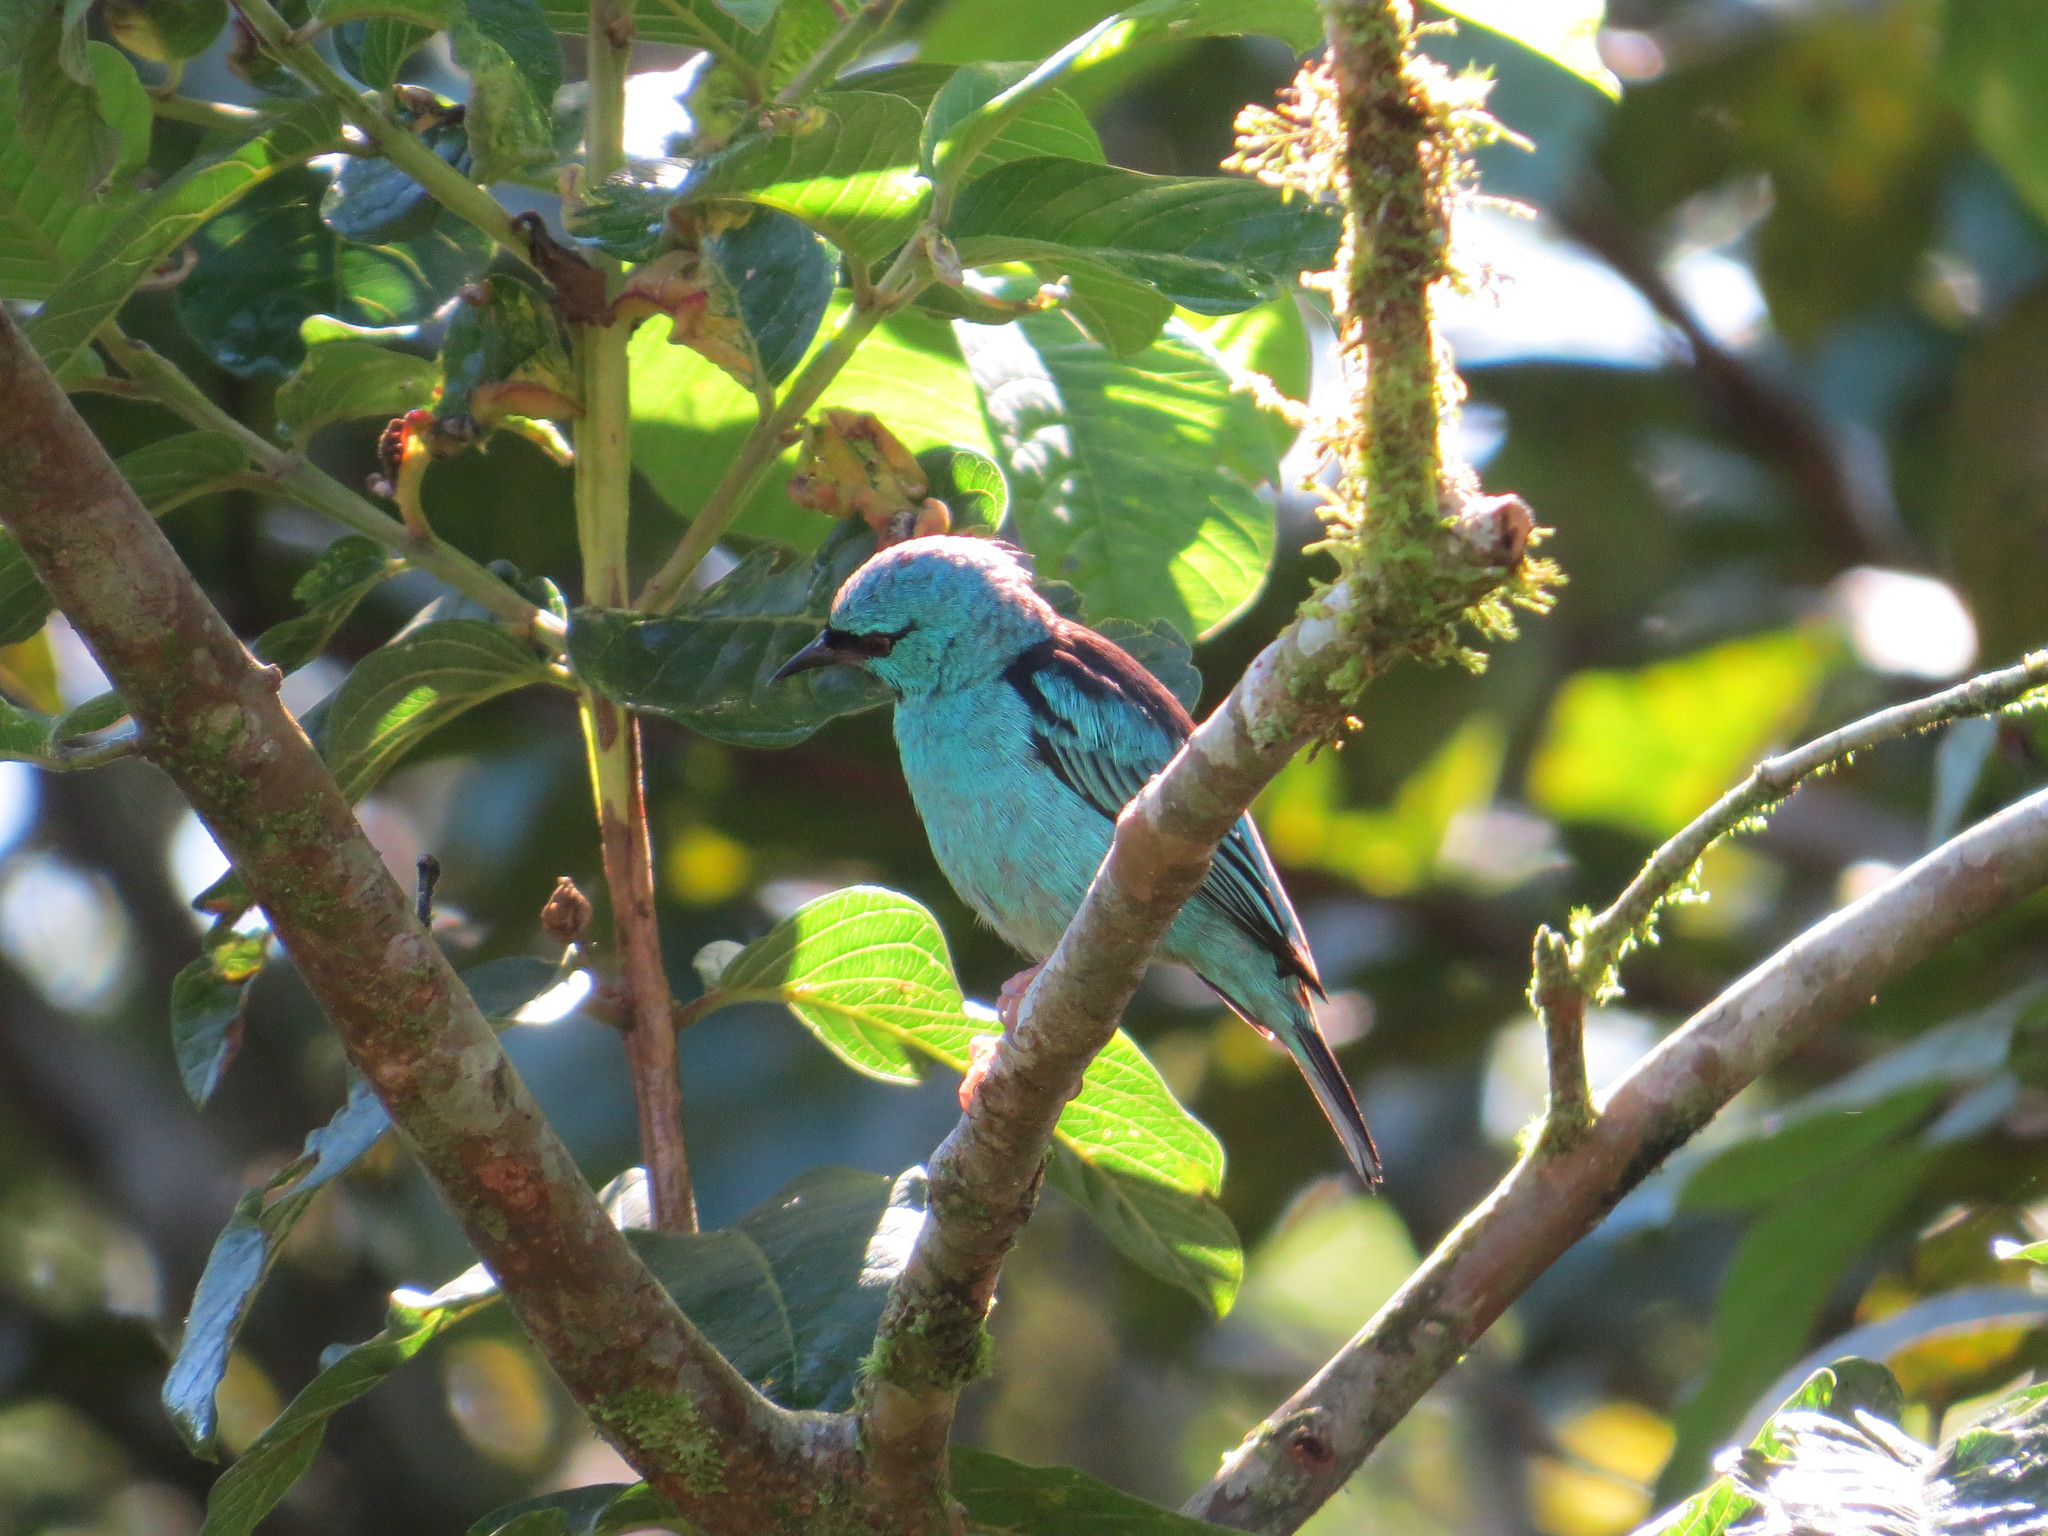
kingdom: Animalia
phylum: Chordata
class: Aves
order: Passeriformes
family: Thraupidae
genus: Dacnis
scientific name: Dacnis cayana
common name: Blue dacnis
